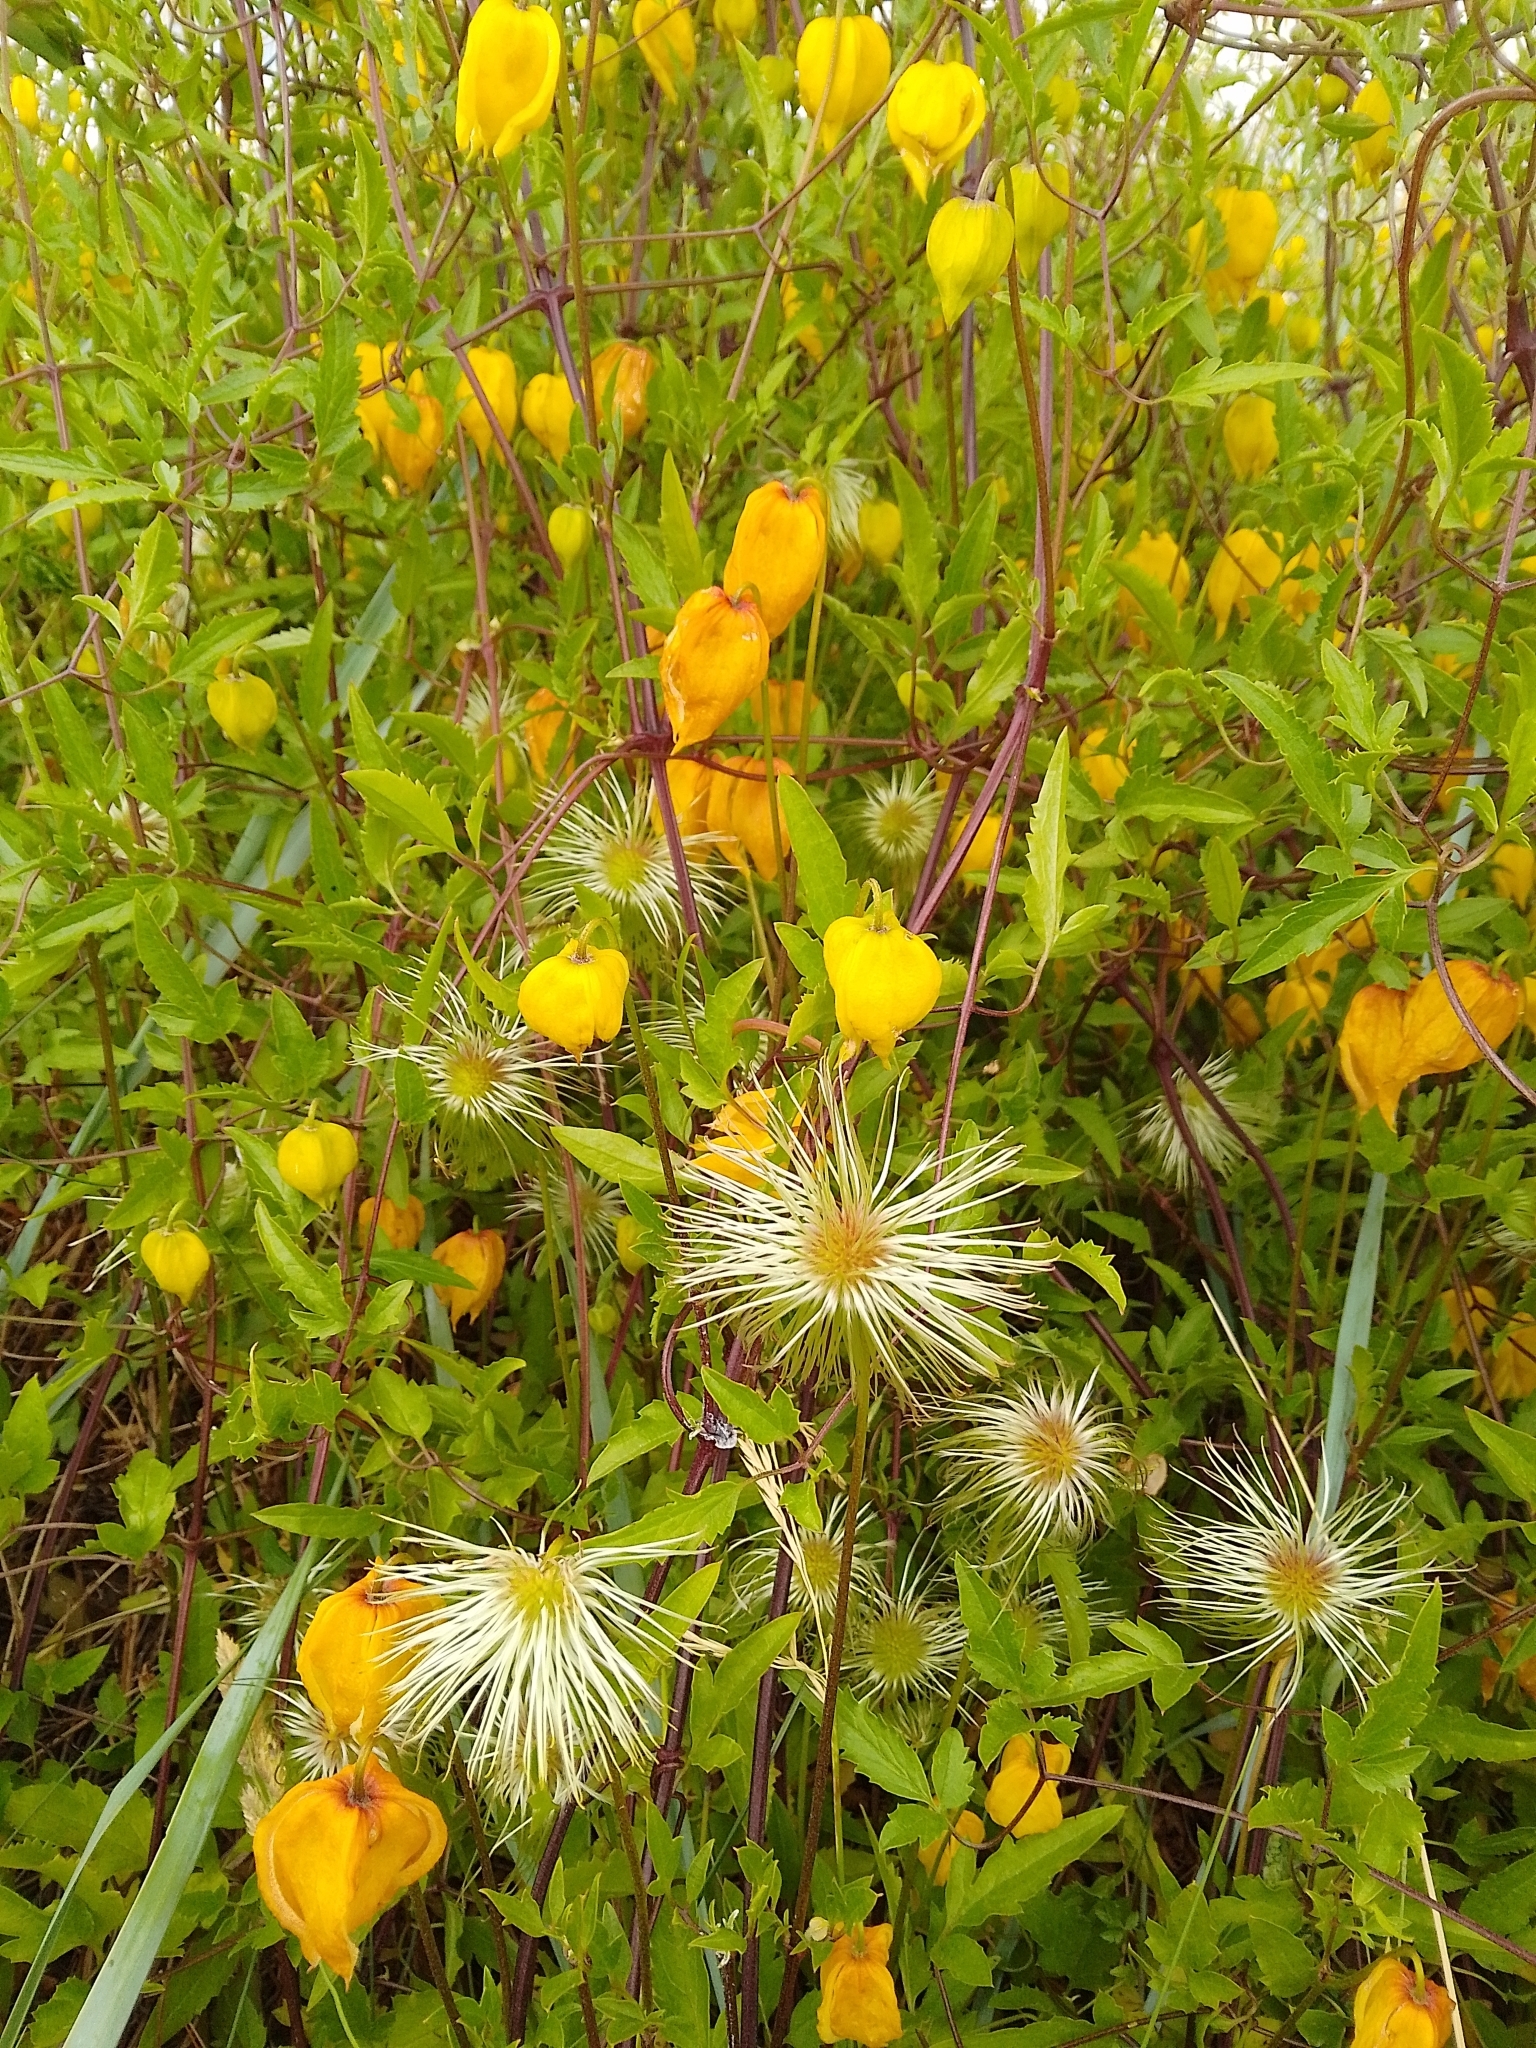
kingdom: Plantae
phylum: Tracheophyta
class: Magnoliopsida
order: Ranunculales
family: Ranunculaceae
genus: Clematis
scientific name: Clematis tangutica
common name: Orange-peel clematis
